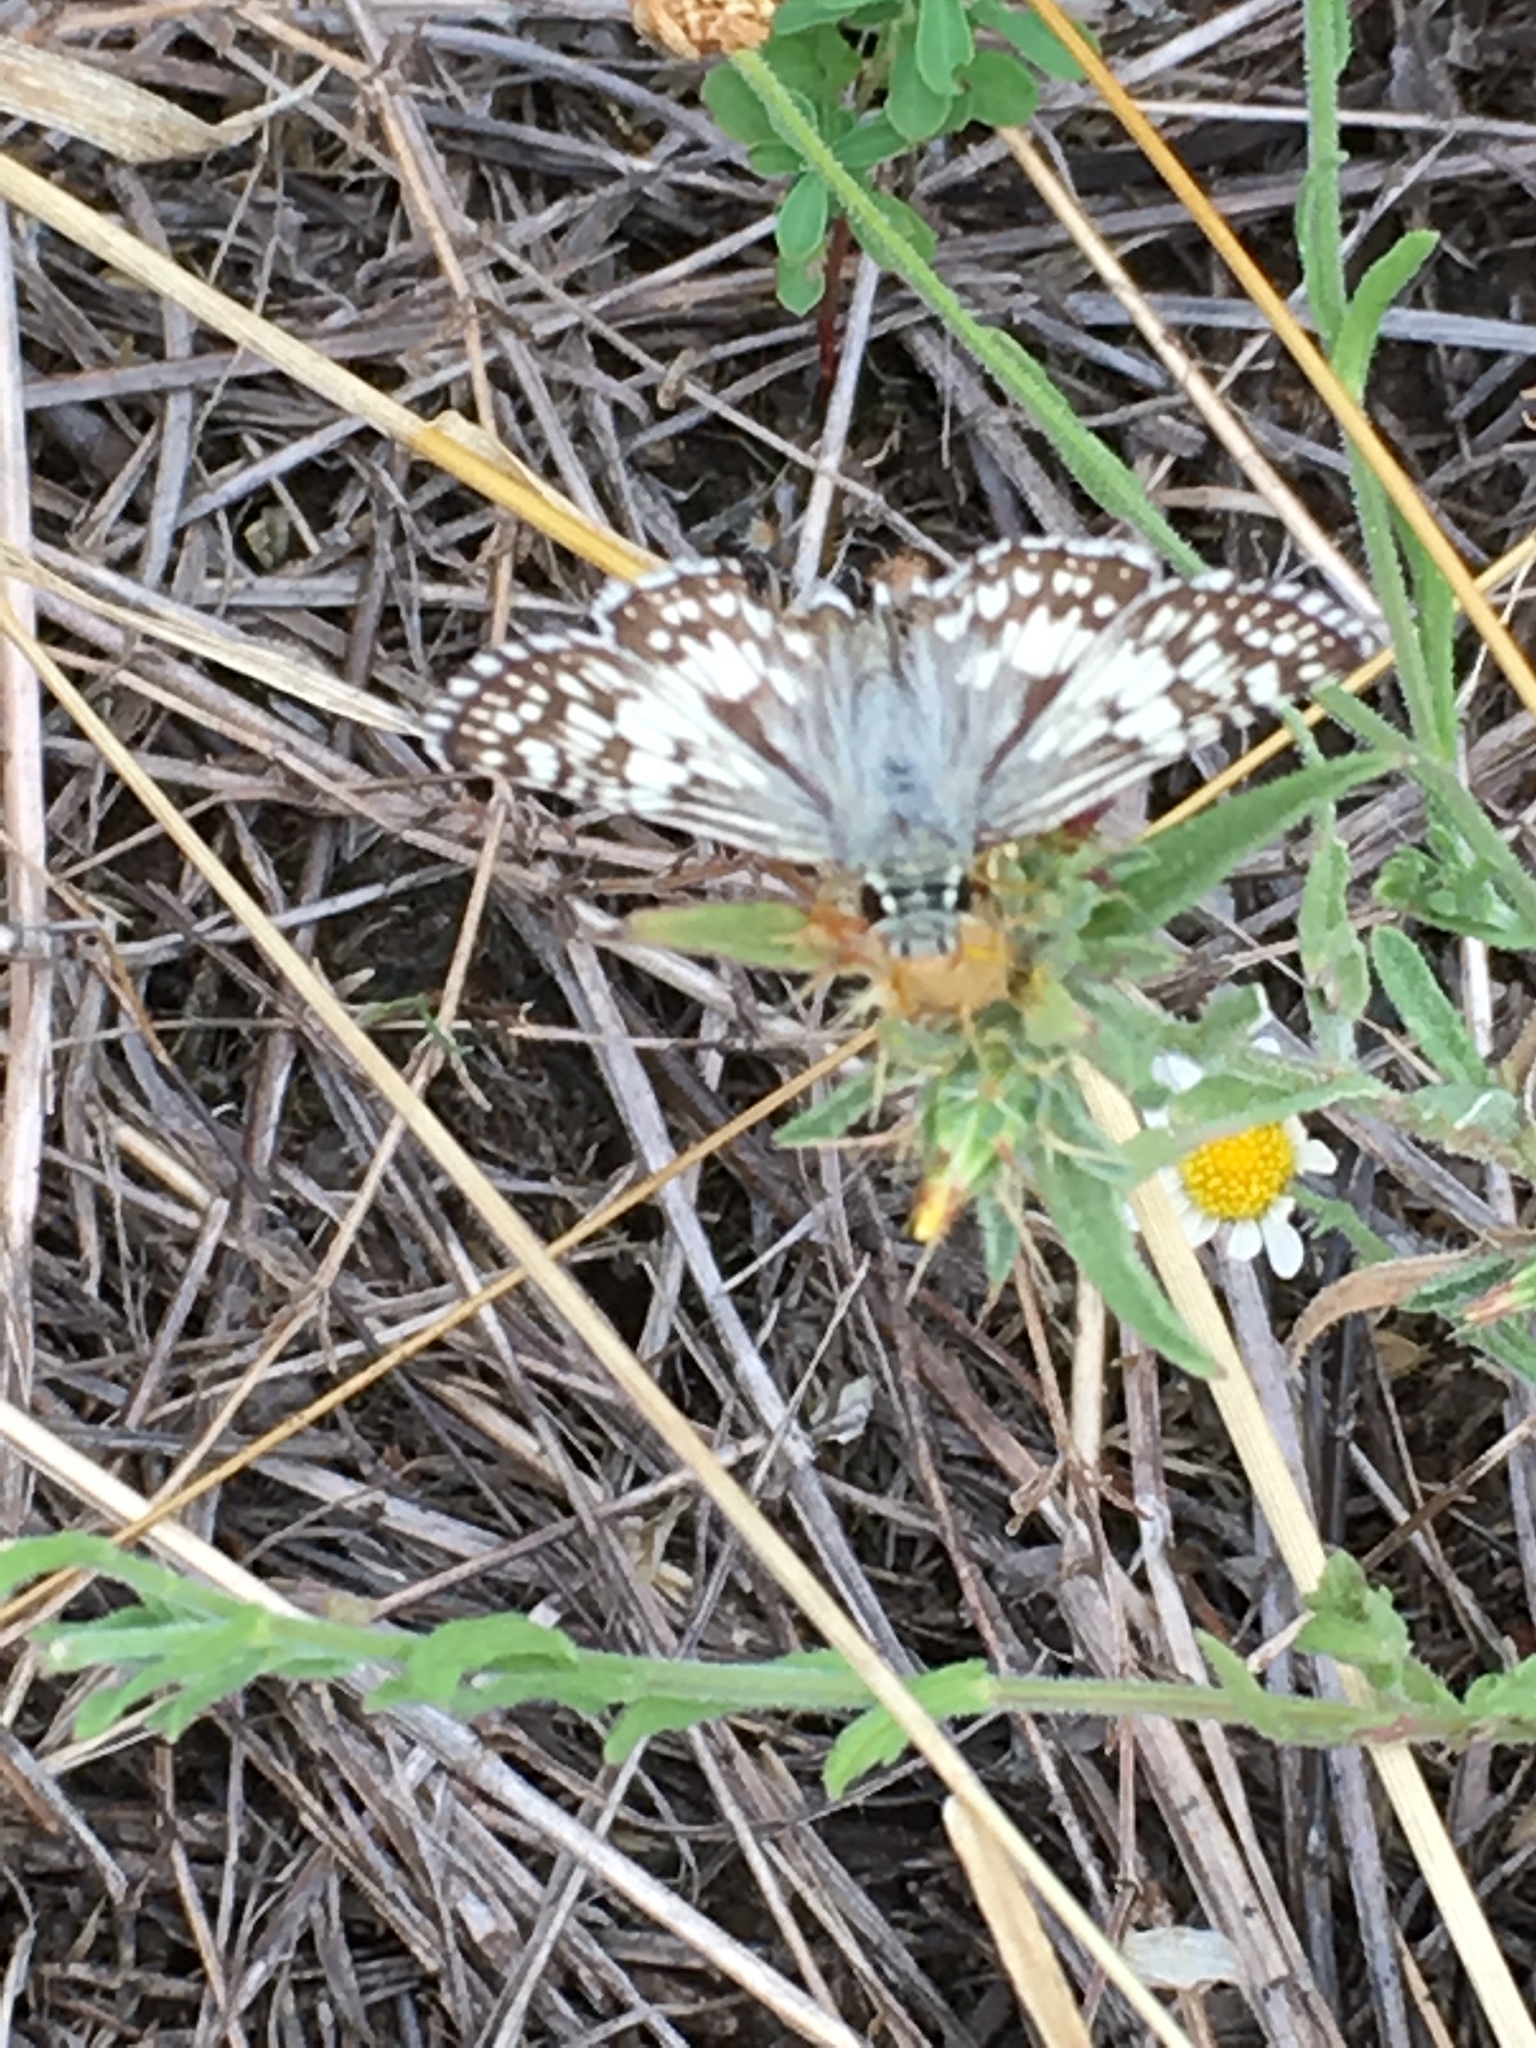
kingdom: Animalia
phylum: Arthropoda
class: Insecta
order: Lepidoptera
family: Hesperiidae
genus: Burnsius
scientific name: Burnsius
